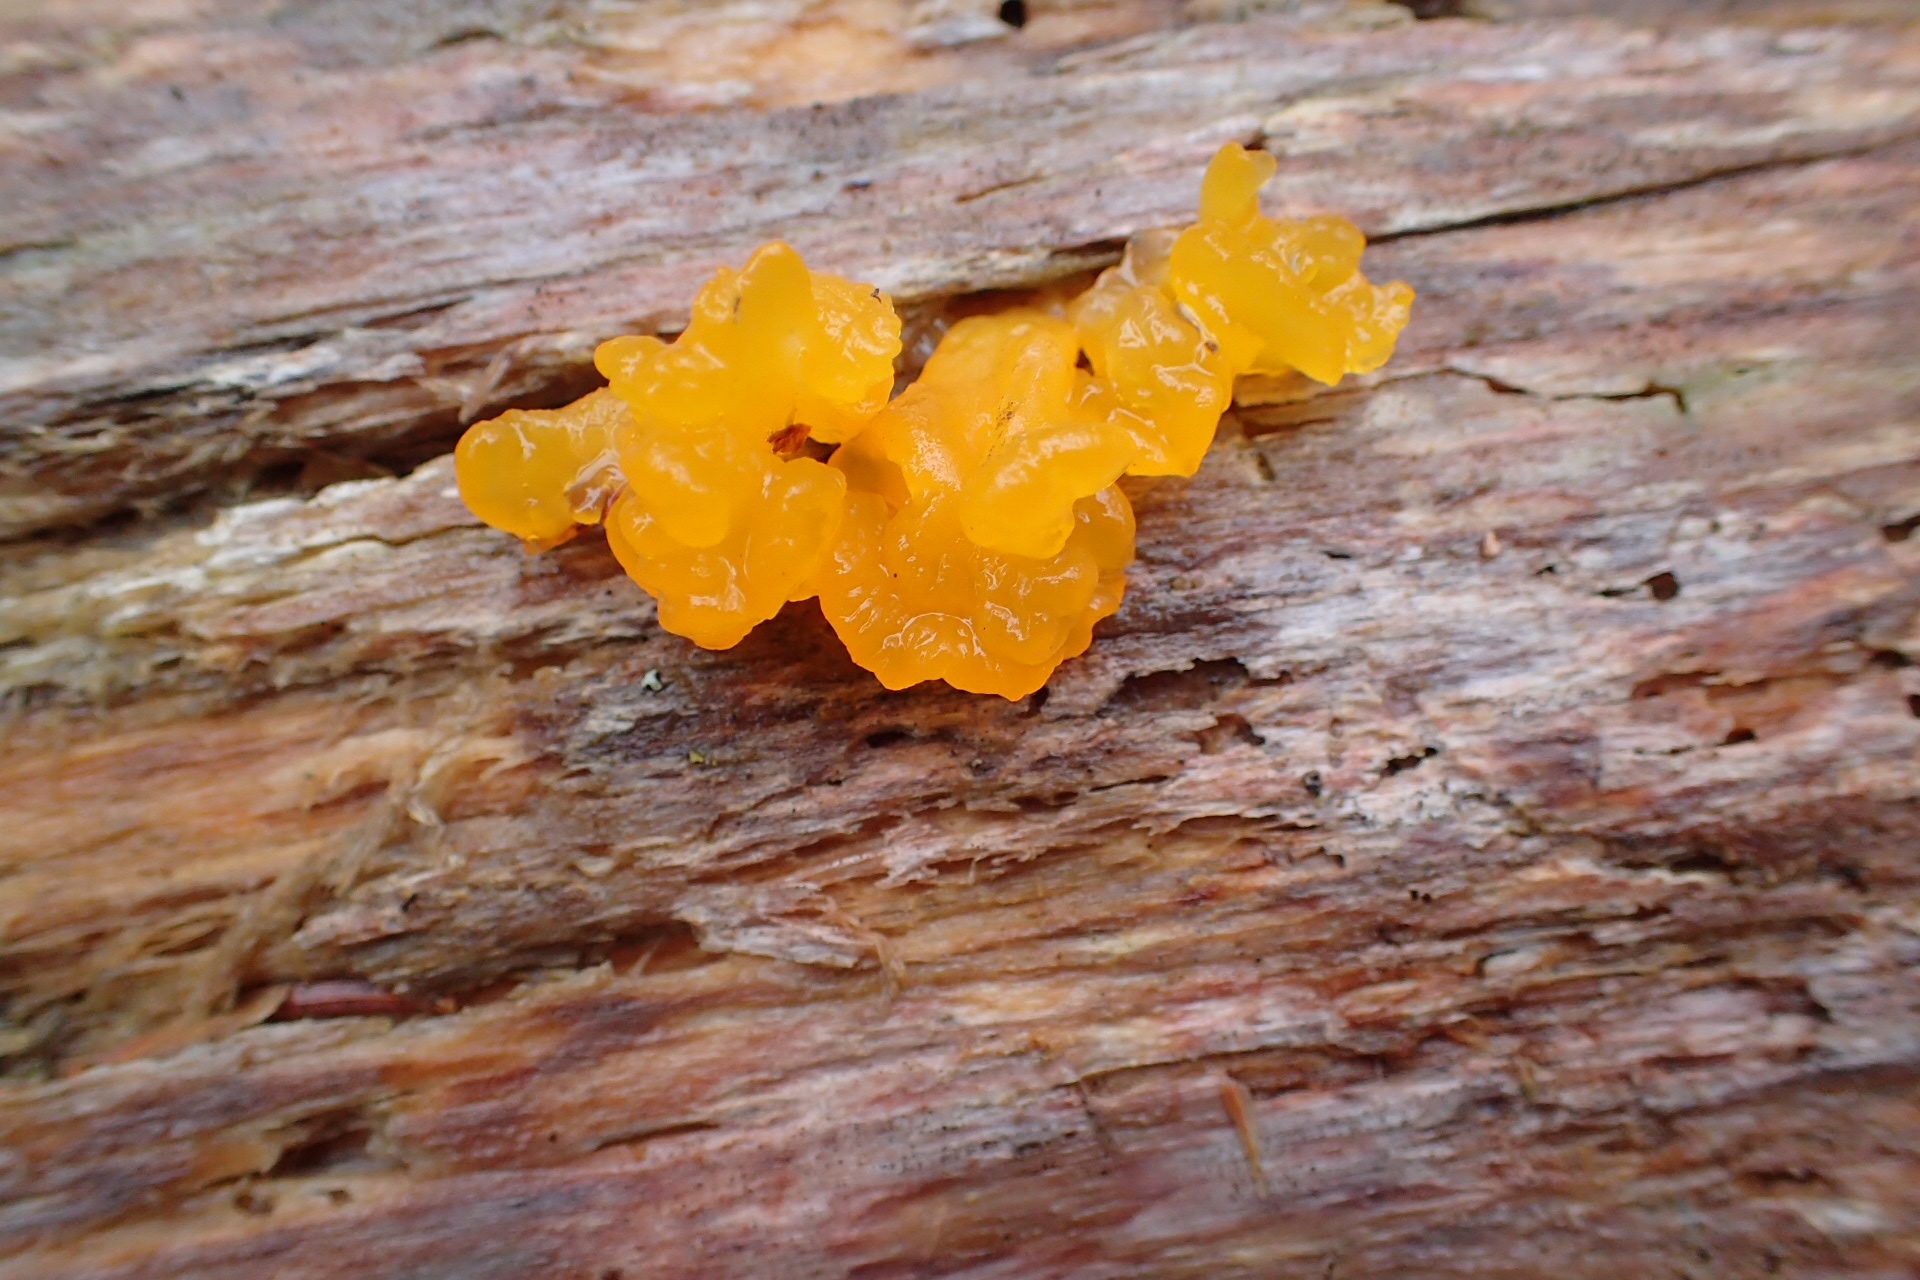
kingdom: Fungi
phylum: Basidiomycota
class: Dacrymycetes
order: Dacrymycetales
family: Dacrymycetaceae
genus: Dacrymyces
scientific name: Dacrymyces chrysospermus
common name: Orange jelly spot
